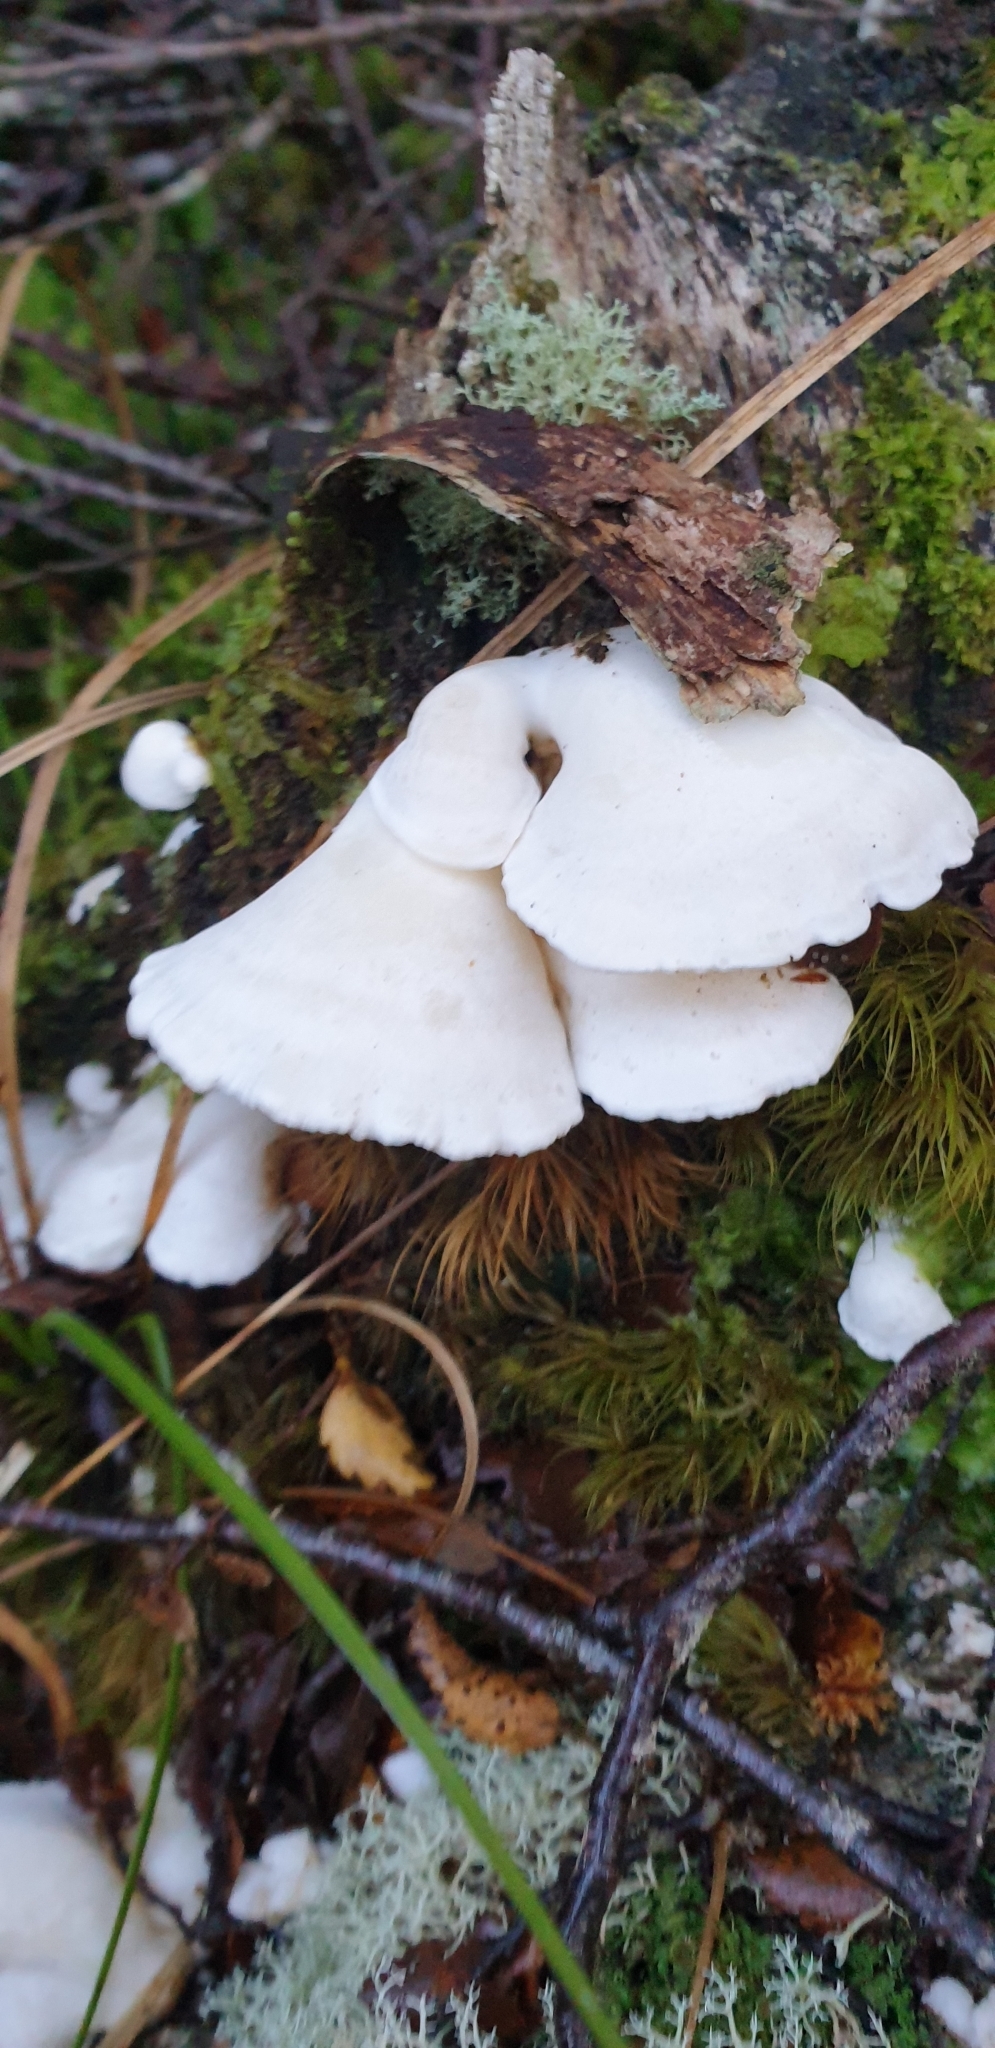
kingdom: Fungi
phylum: Basidiomycota
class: Agaricomycetes
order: Polyporales
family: Irpicaceae
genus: Gloeoporus
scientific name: Gloeoporus phlebophorus
